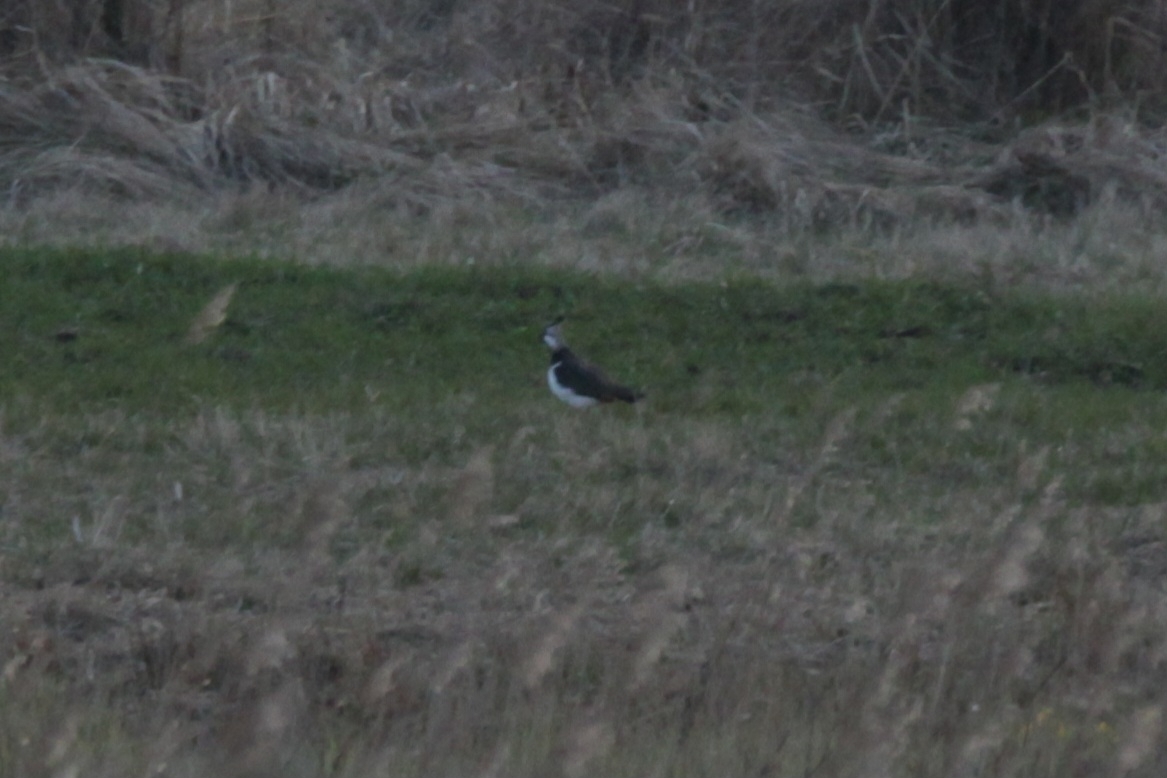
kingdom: Animalia
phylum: Chordata
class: Aves
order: Charadriiformes
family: Charadriidae
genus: Vanellus
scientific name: Vanellus vanellus
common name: Northern lapwing
